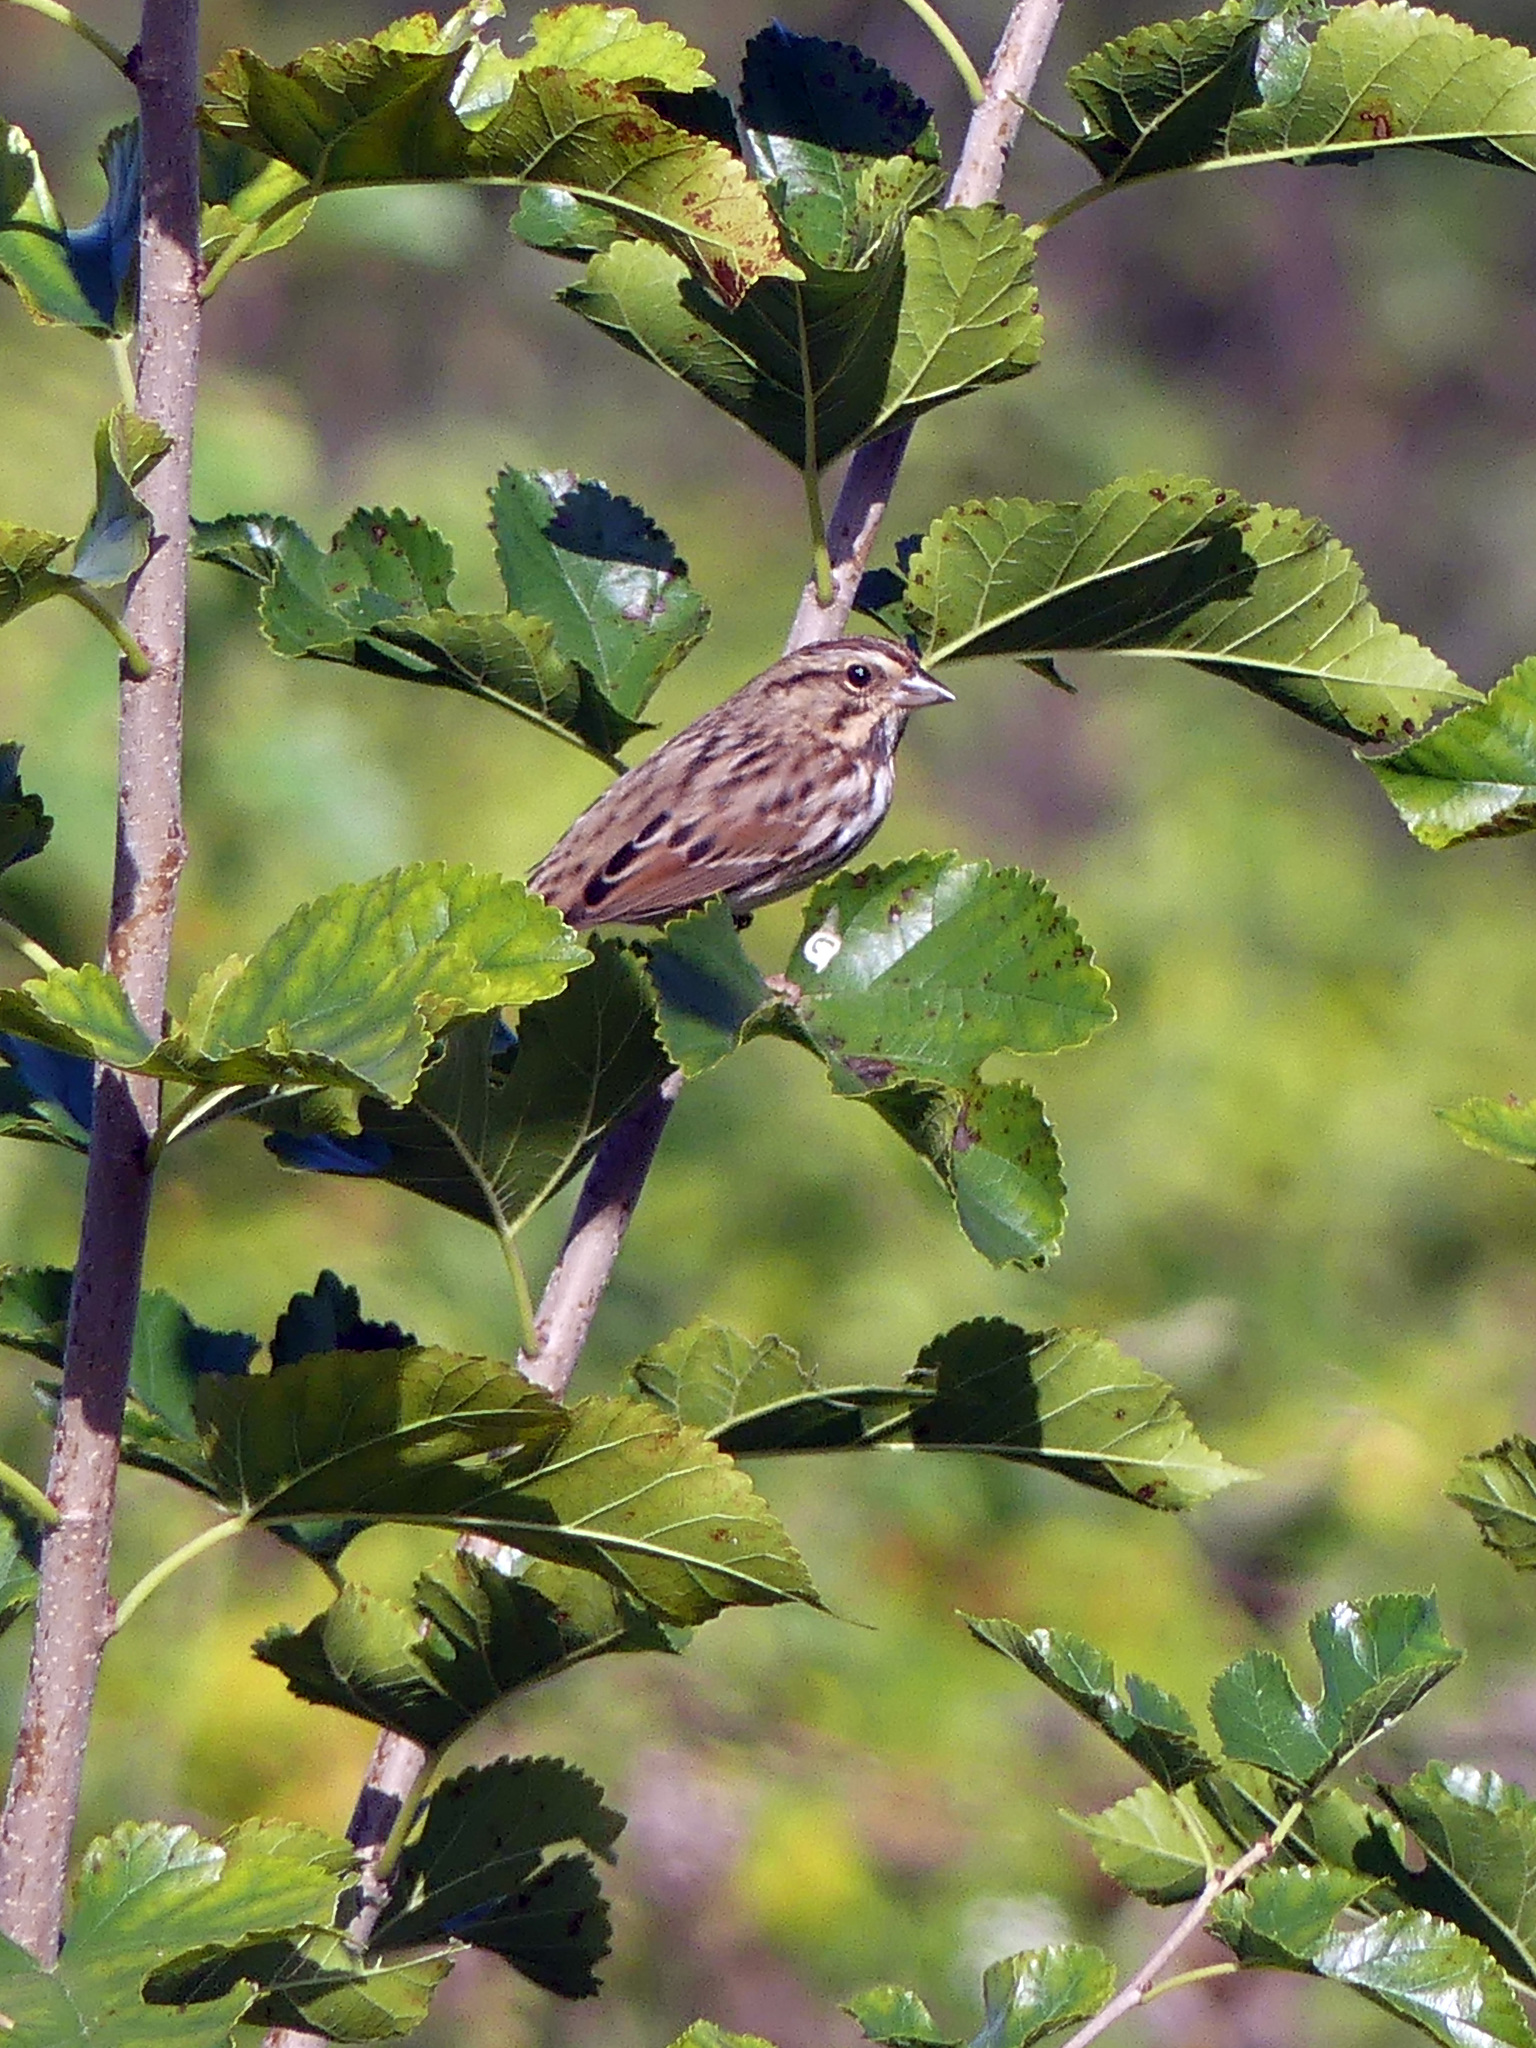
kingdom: Animalia
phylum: Chordata
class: Aves
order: Passeriformes
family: Passerellidae
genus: Melospiza
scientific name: Melospiza melodia
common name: Song sparrow
